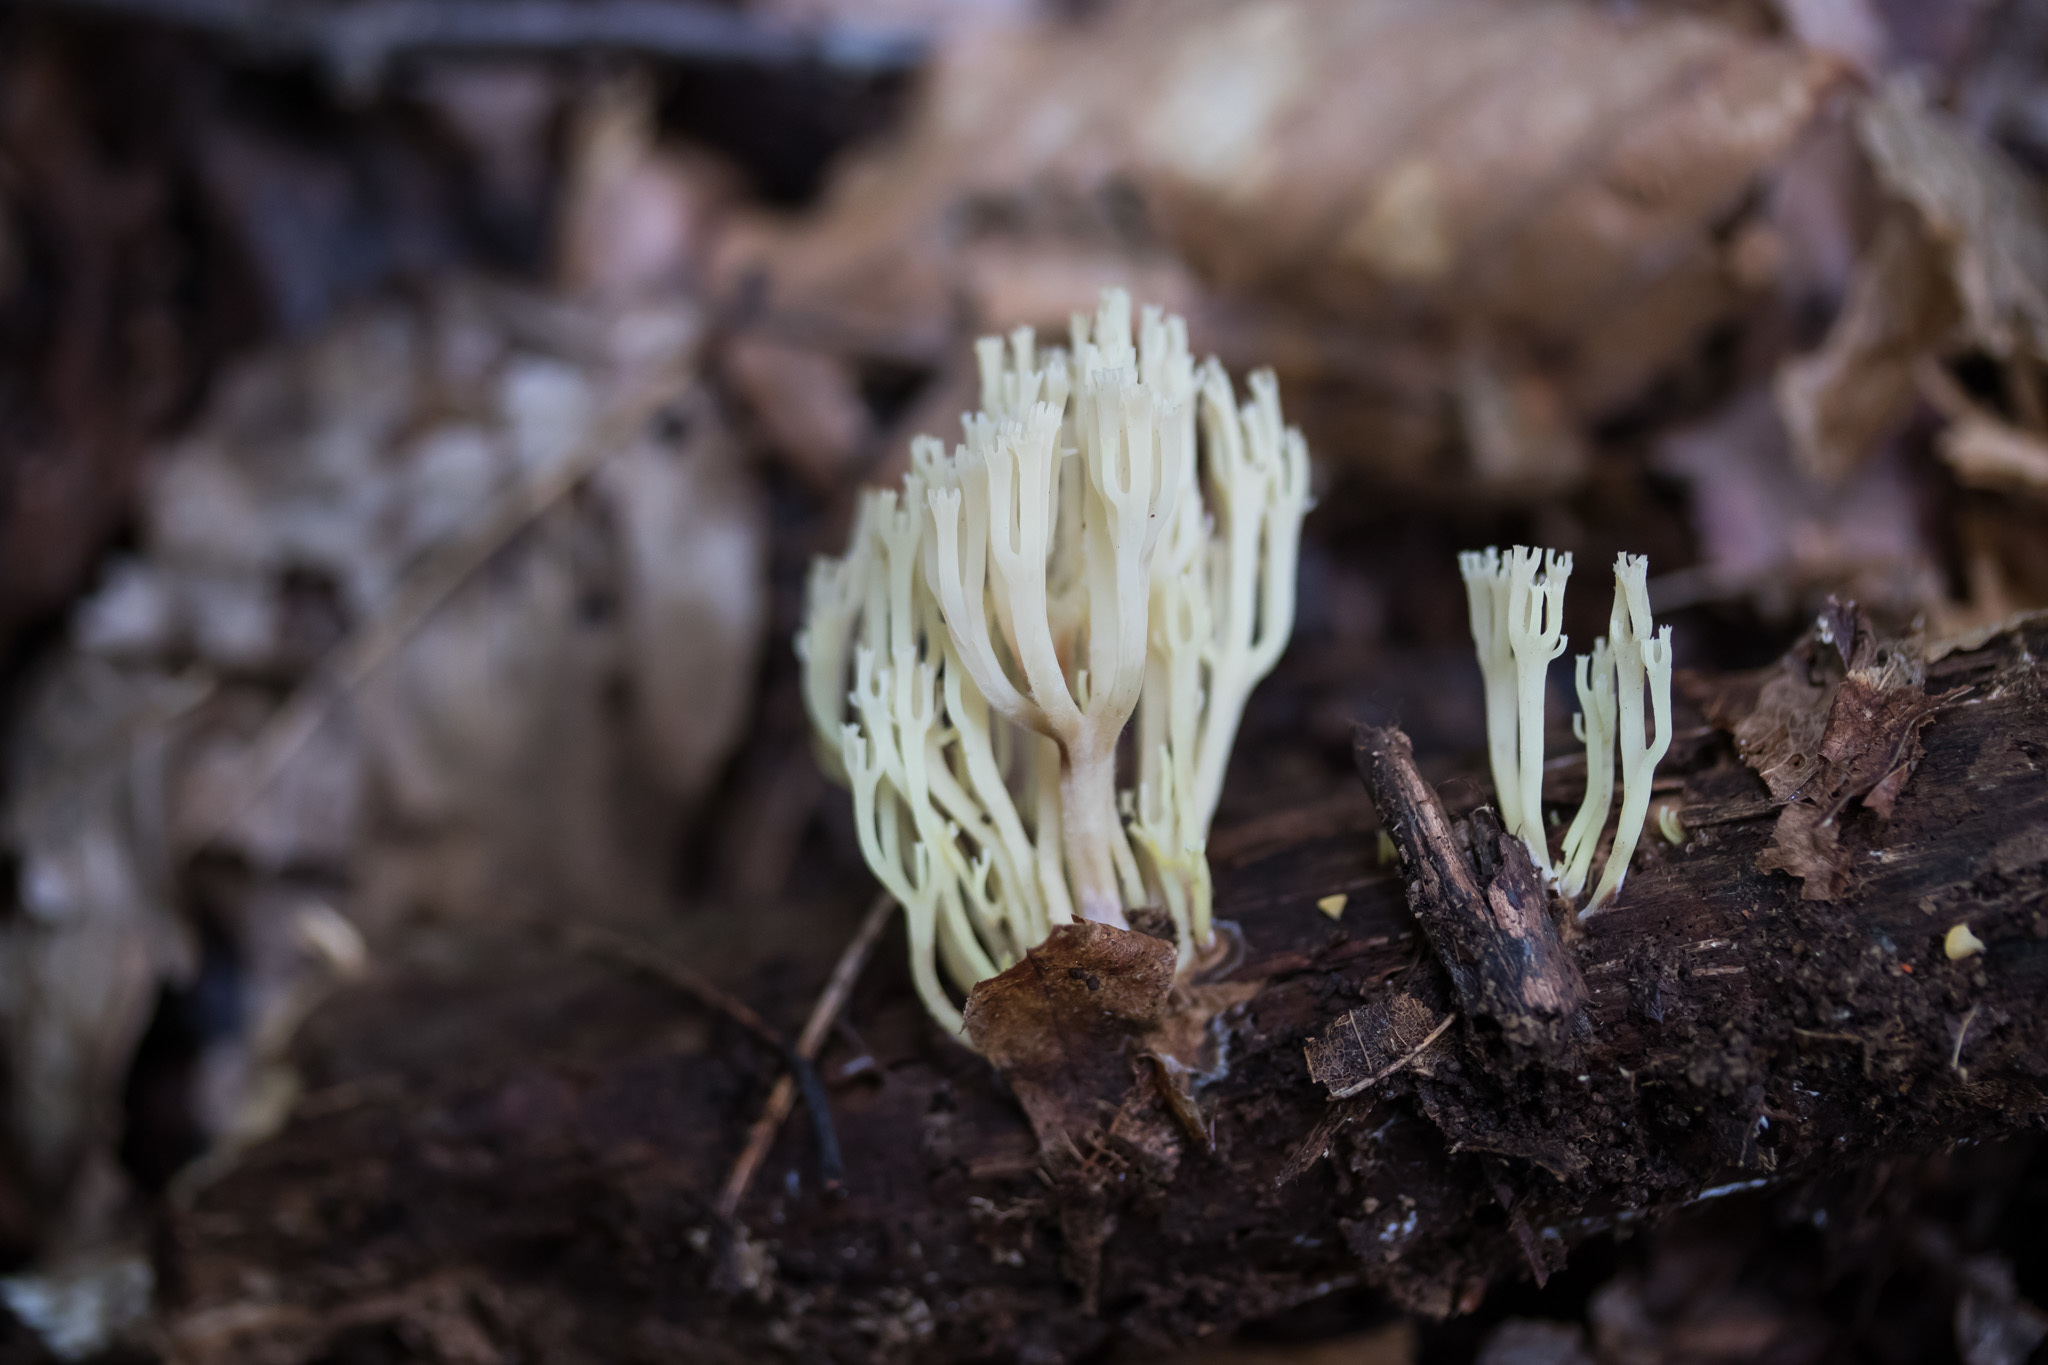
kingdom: Fungi
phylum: Basidiomycota
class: Agaricomycetes
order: Russulales
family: Auriscalpiaceae
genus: Artomyces
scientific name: Artomyces pyxidatus
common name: Crown-tipped coral fungus
